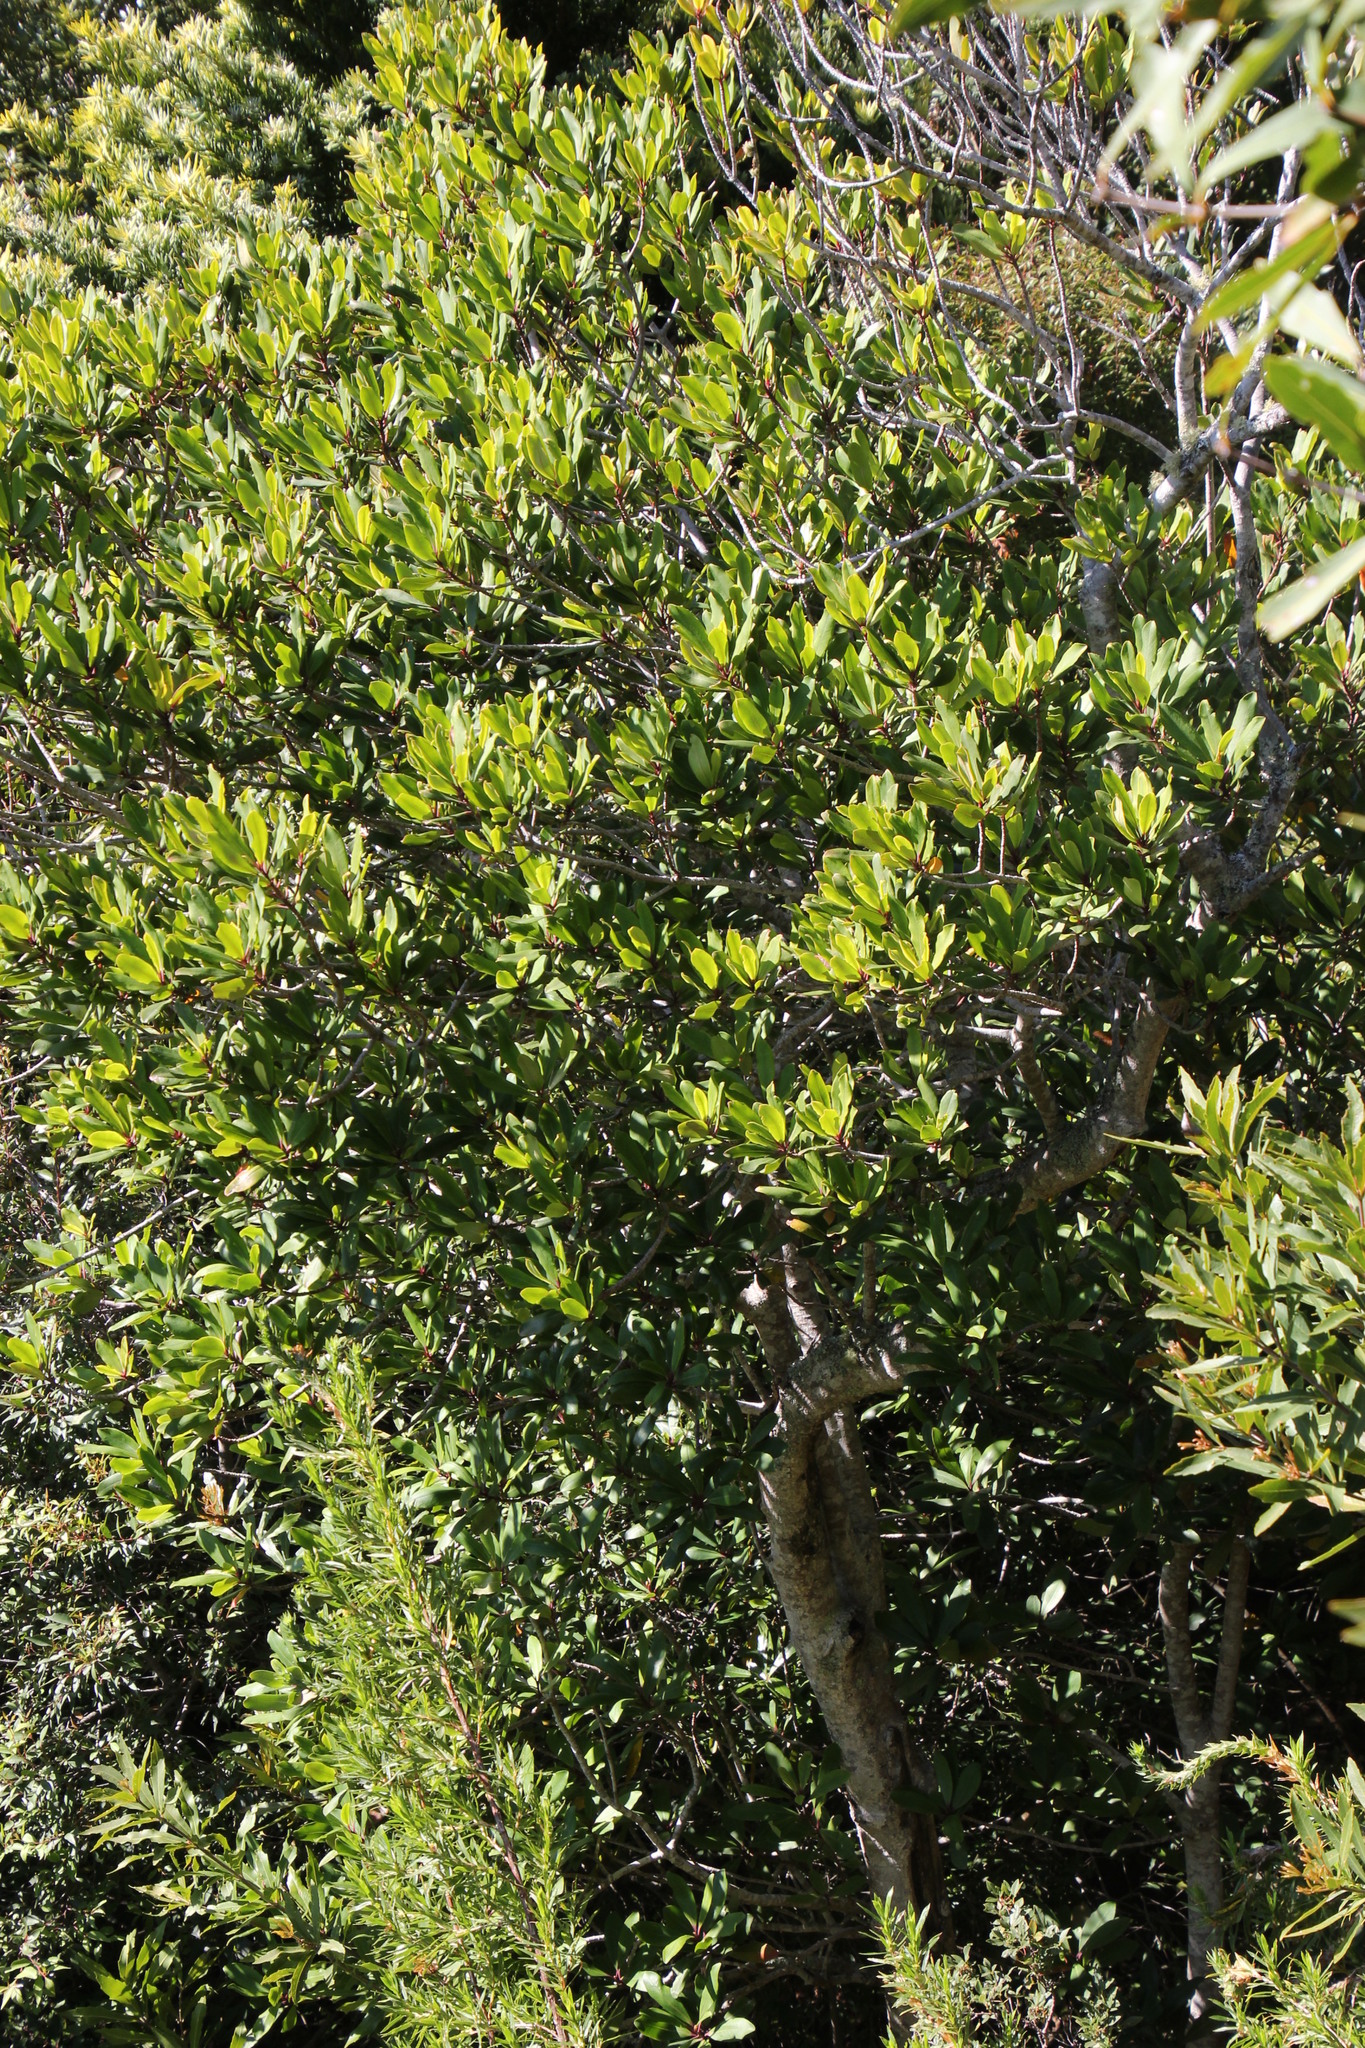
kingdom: Plantae
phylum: Tracheophyta
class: Magnoliopsida
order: Ericales
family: Primulaceae
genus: Myrsine
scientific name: Myrsine melanophloeos
